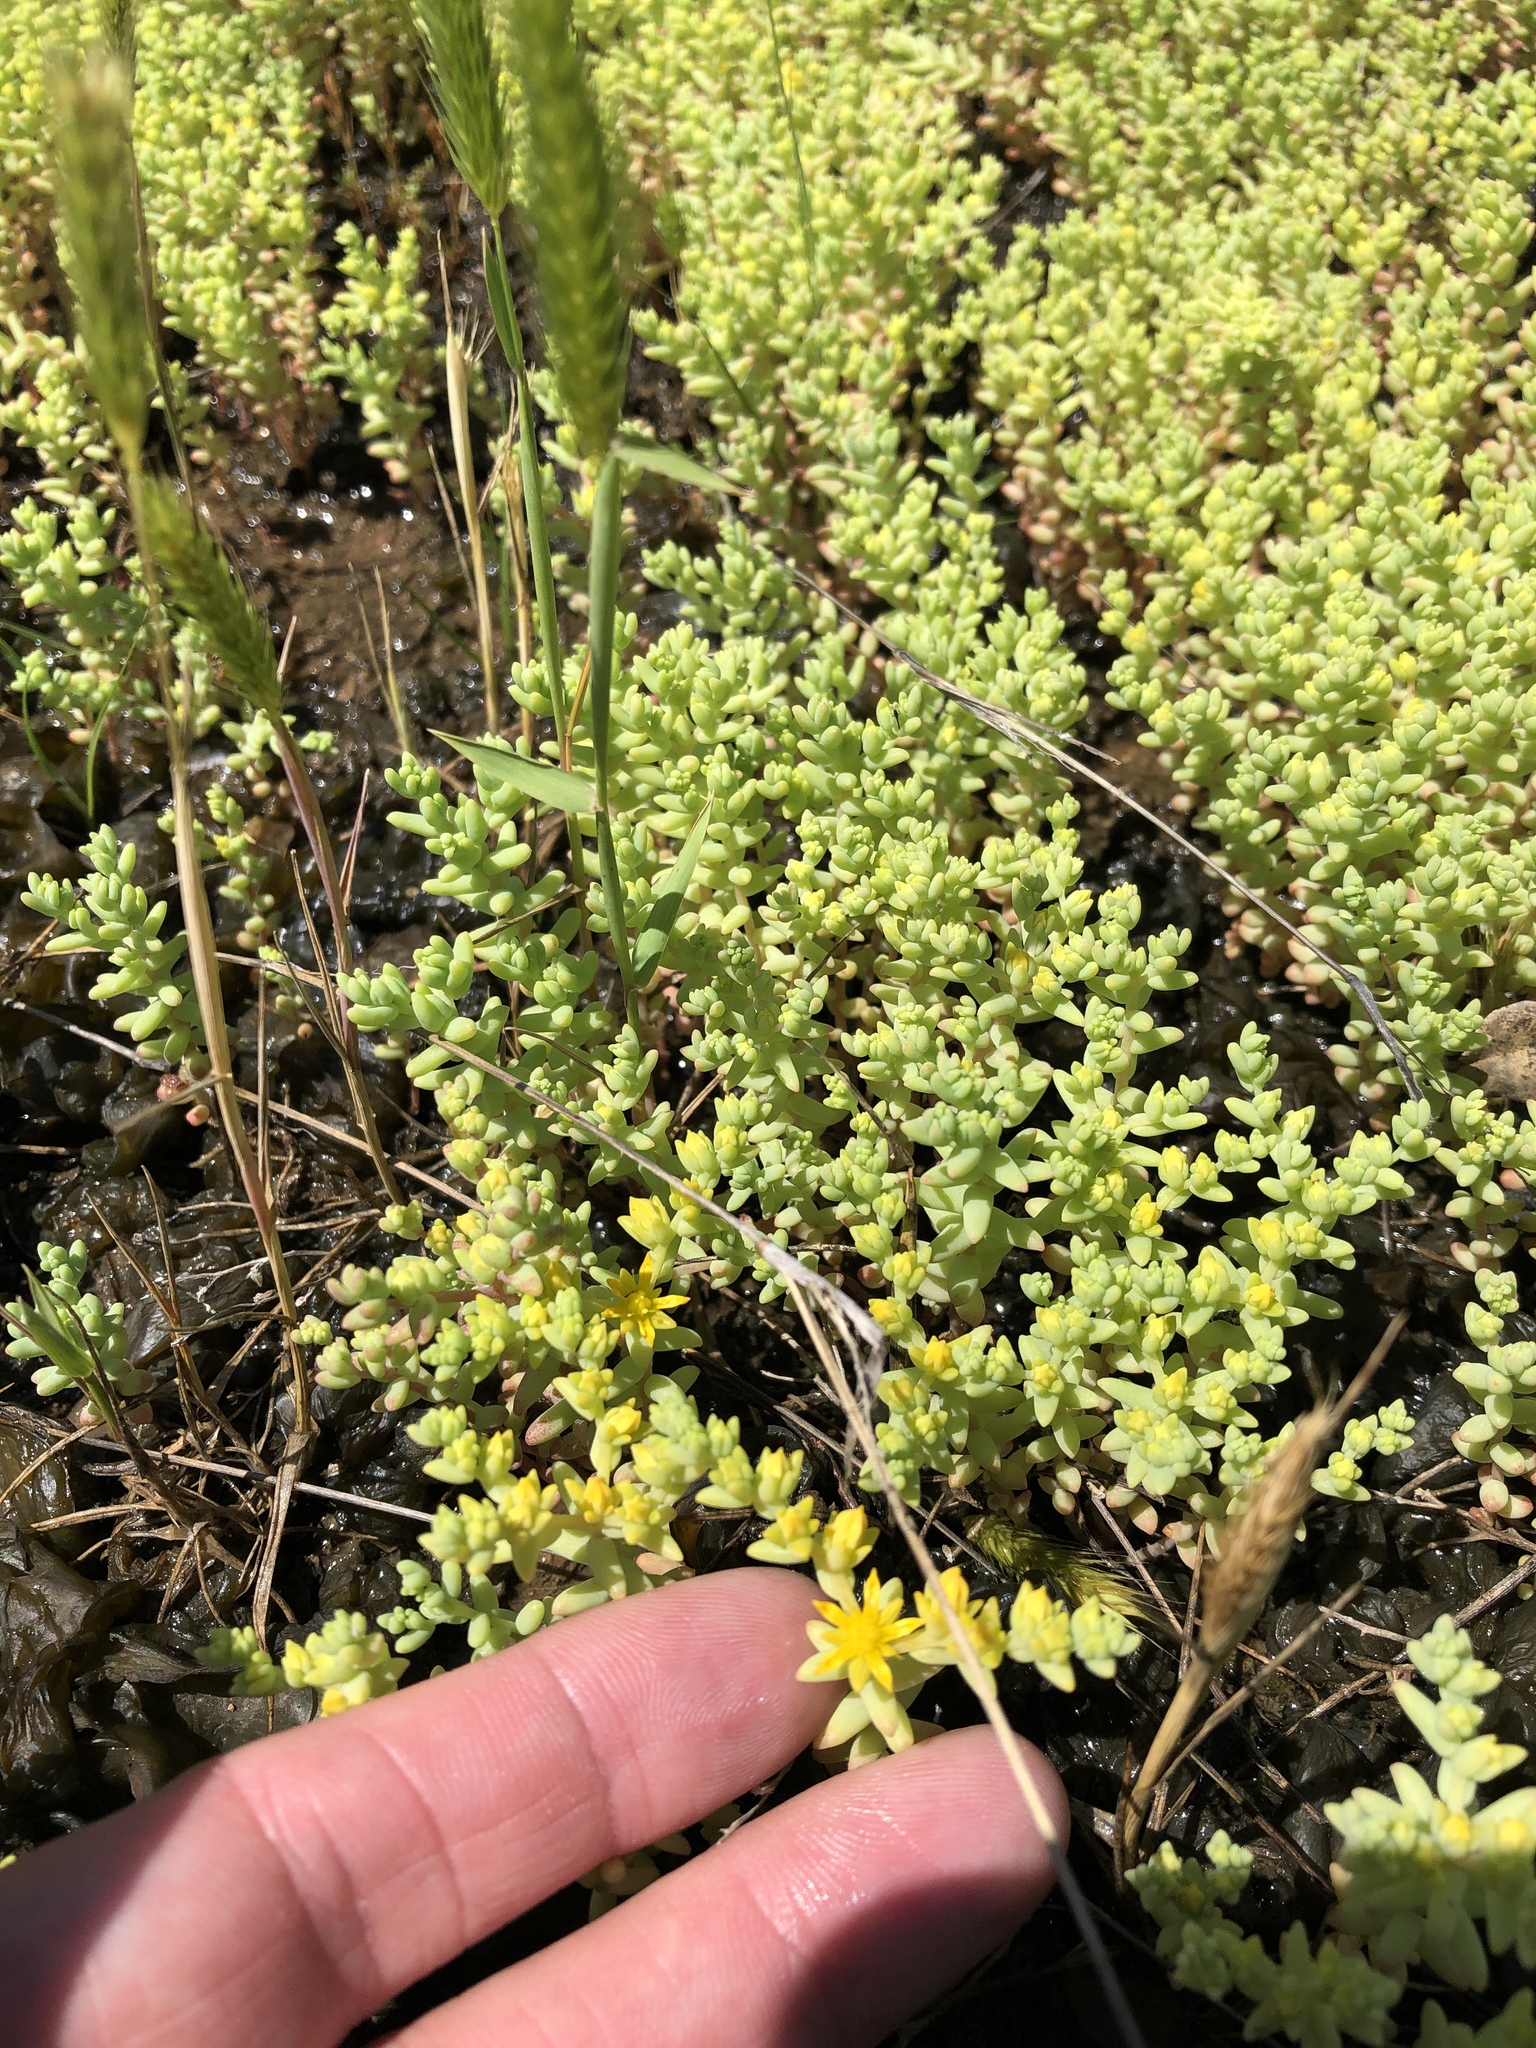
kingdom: Plantae
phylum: Tracheophyta
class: Magnoliopsida
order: Saxifragales
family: Crassulaceae
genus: Sedum
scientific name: Sedum nuttallii
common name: Yellow stonecrop
